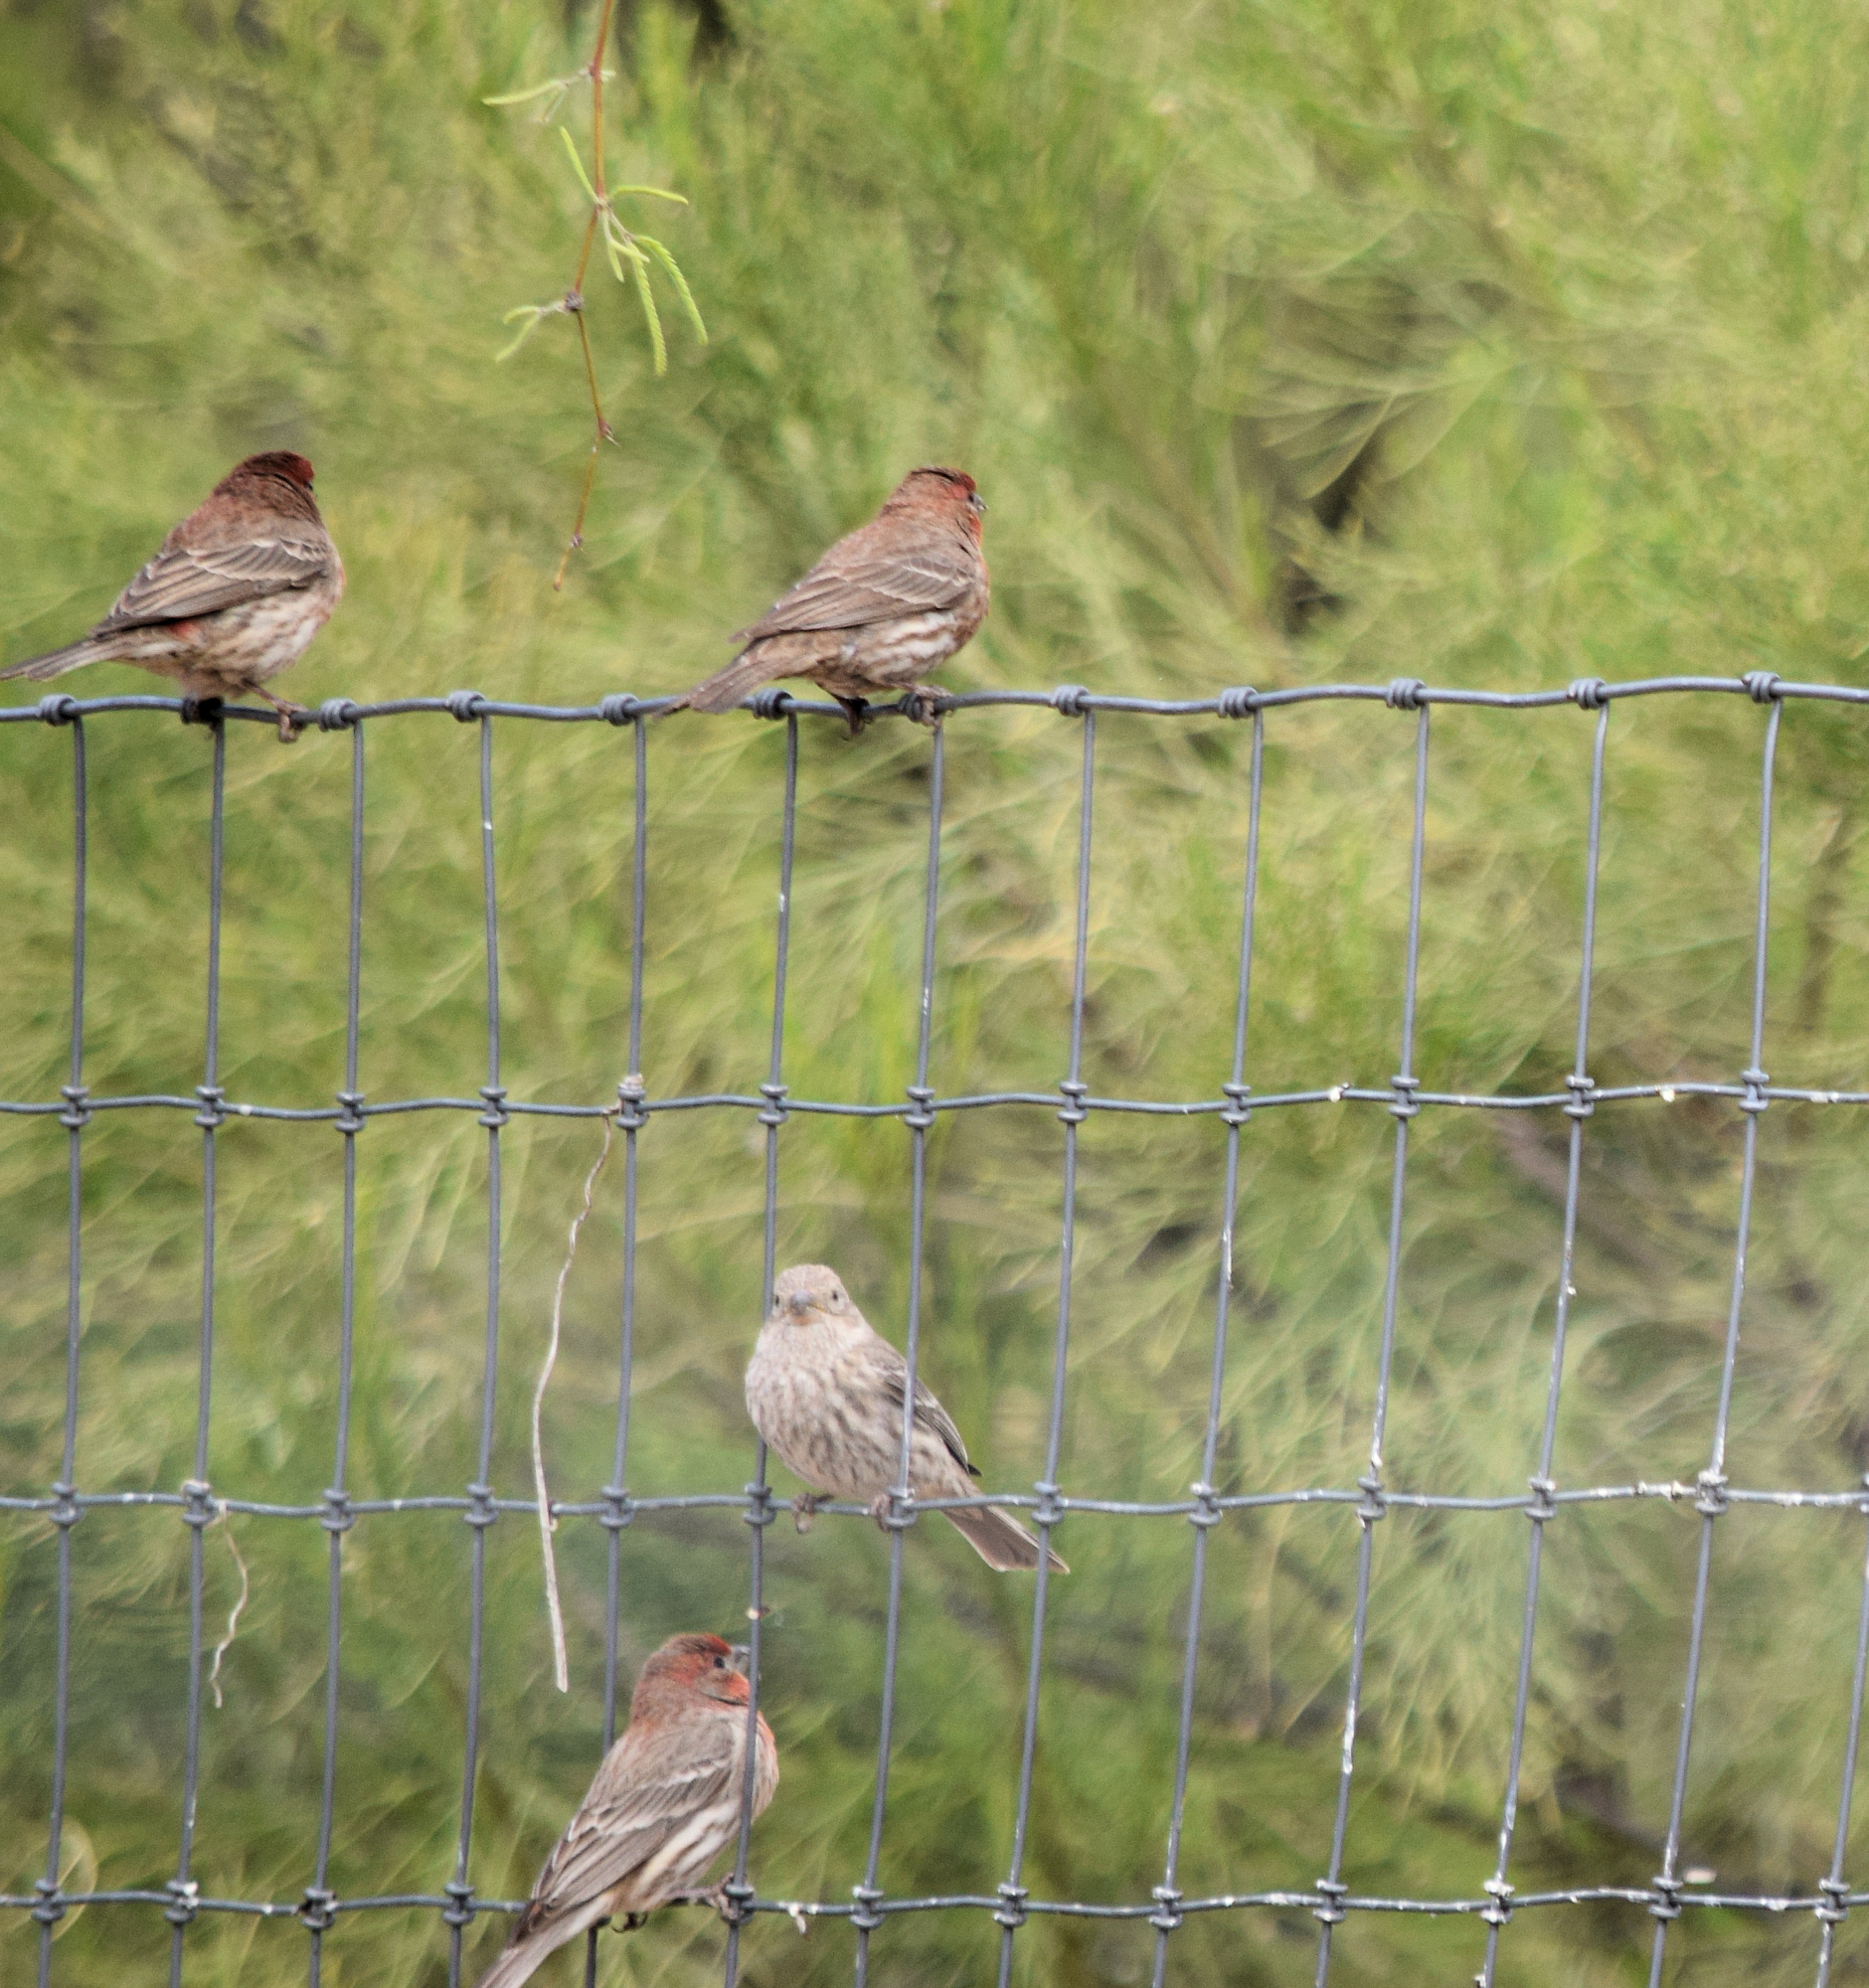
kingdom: Animalia
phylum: Chordata
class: Aves
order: Passeriformes
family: Fringillidae
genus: Haemorhous
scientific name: Haemorhous mexicanus
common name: House finch
